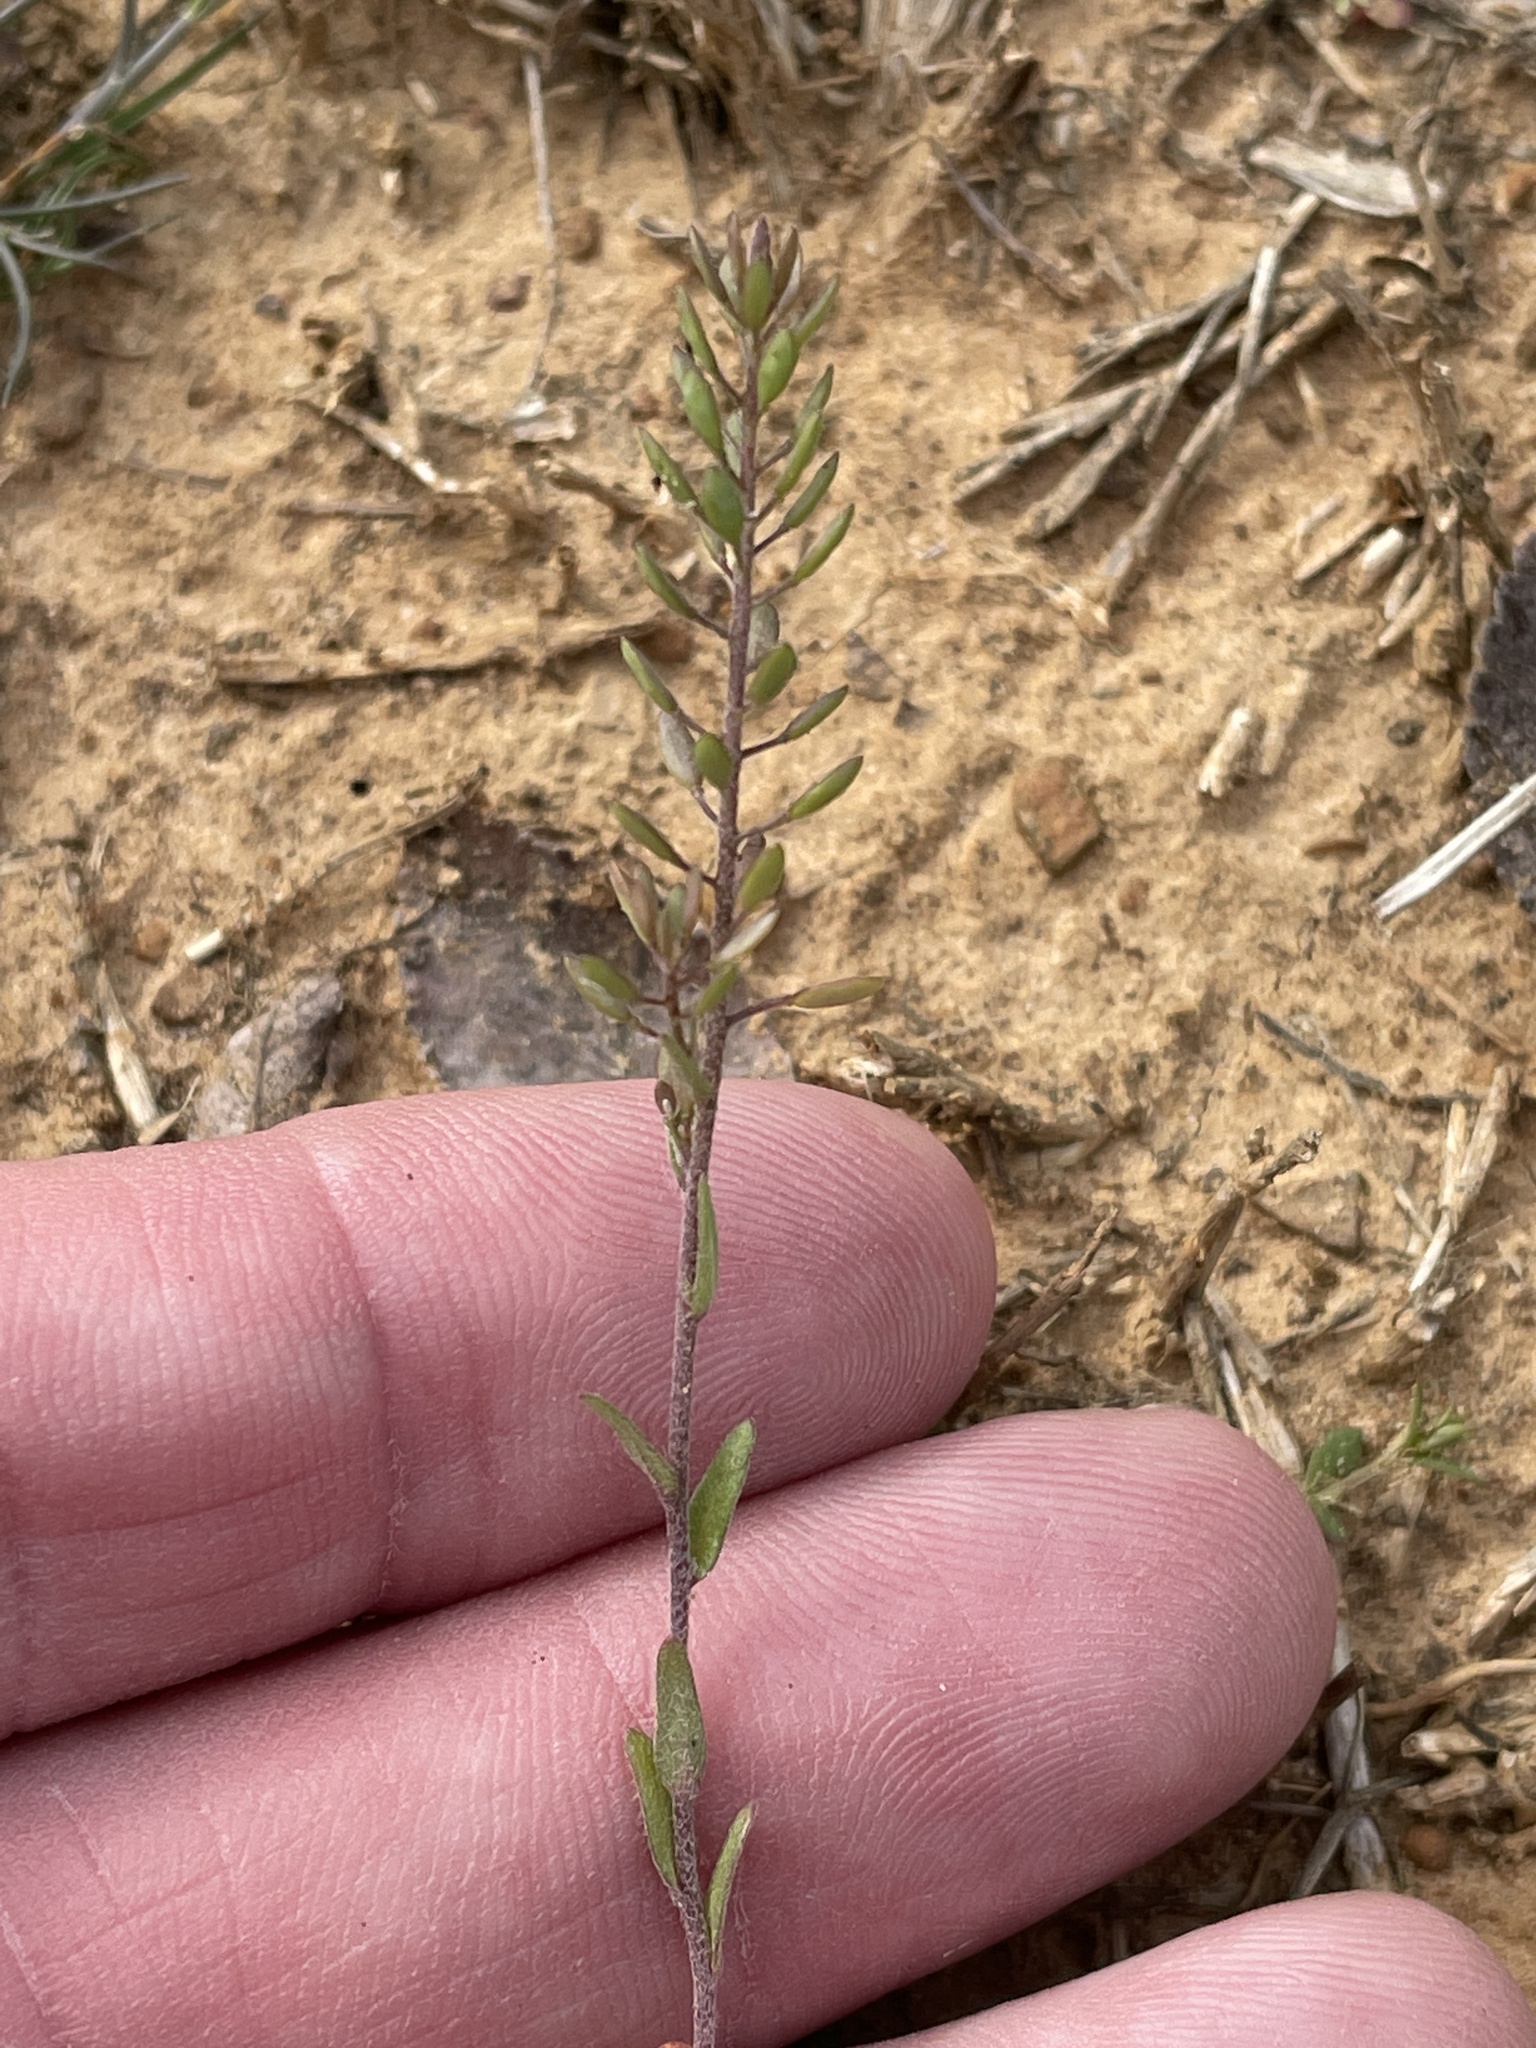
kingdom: Plantae
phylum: Tracheophyta
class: Magnoliopsida
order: Brassicales
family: Brassicaceae
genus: Abdra
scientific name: Abdra brachycarpa
